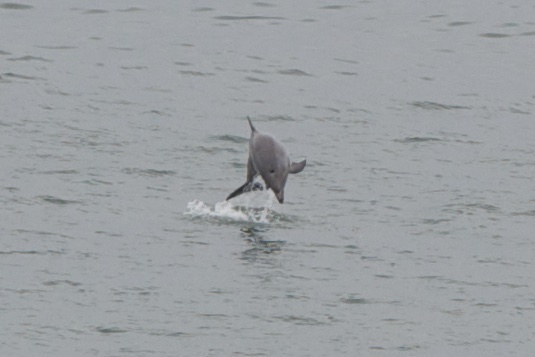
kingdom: Animalia
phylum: Chordata
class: Aves
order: Pelecaniformes
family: Pelecanidae
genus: Pelecanus
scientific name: Pelecanus occidentalis
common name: Brown pelican
